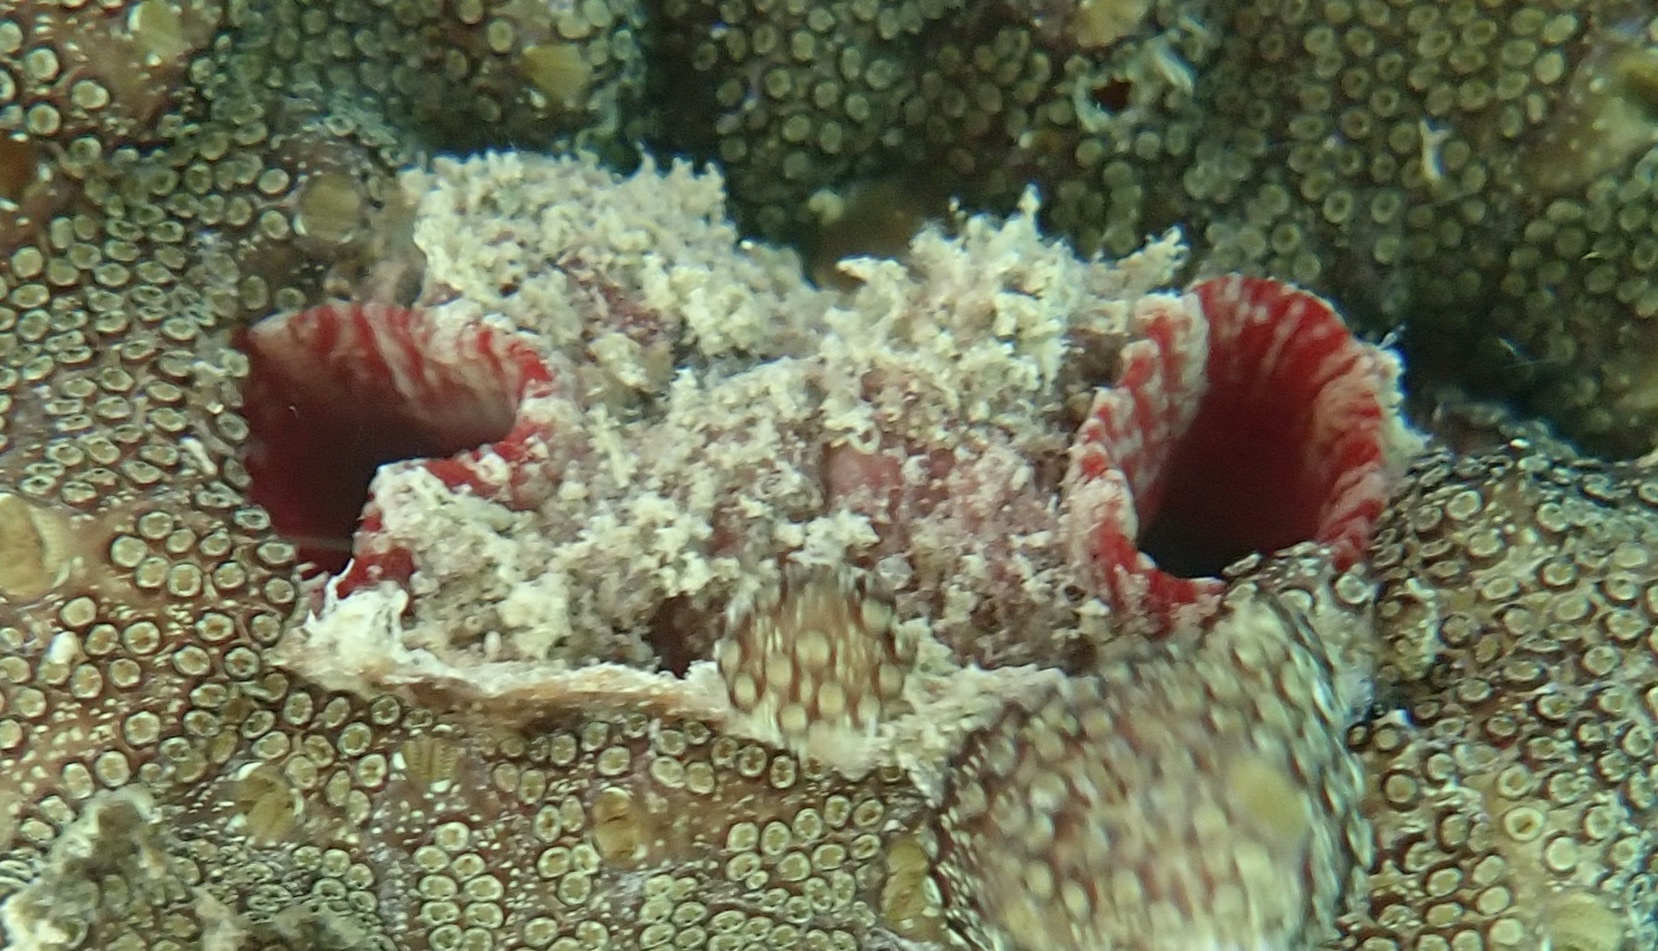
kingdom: Animalia
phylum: Chordata
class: Ascidiacea
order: Stolidobranchia
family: Pyuridae
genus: Pyura
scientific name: Pyura torpida
